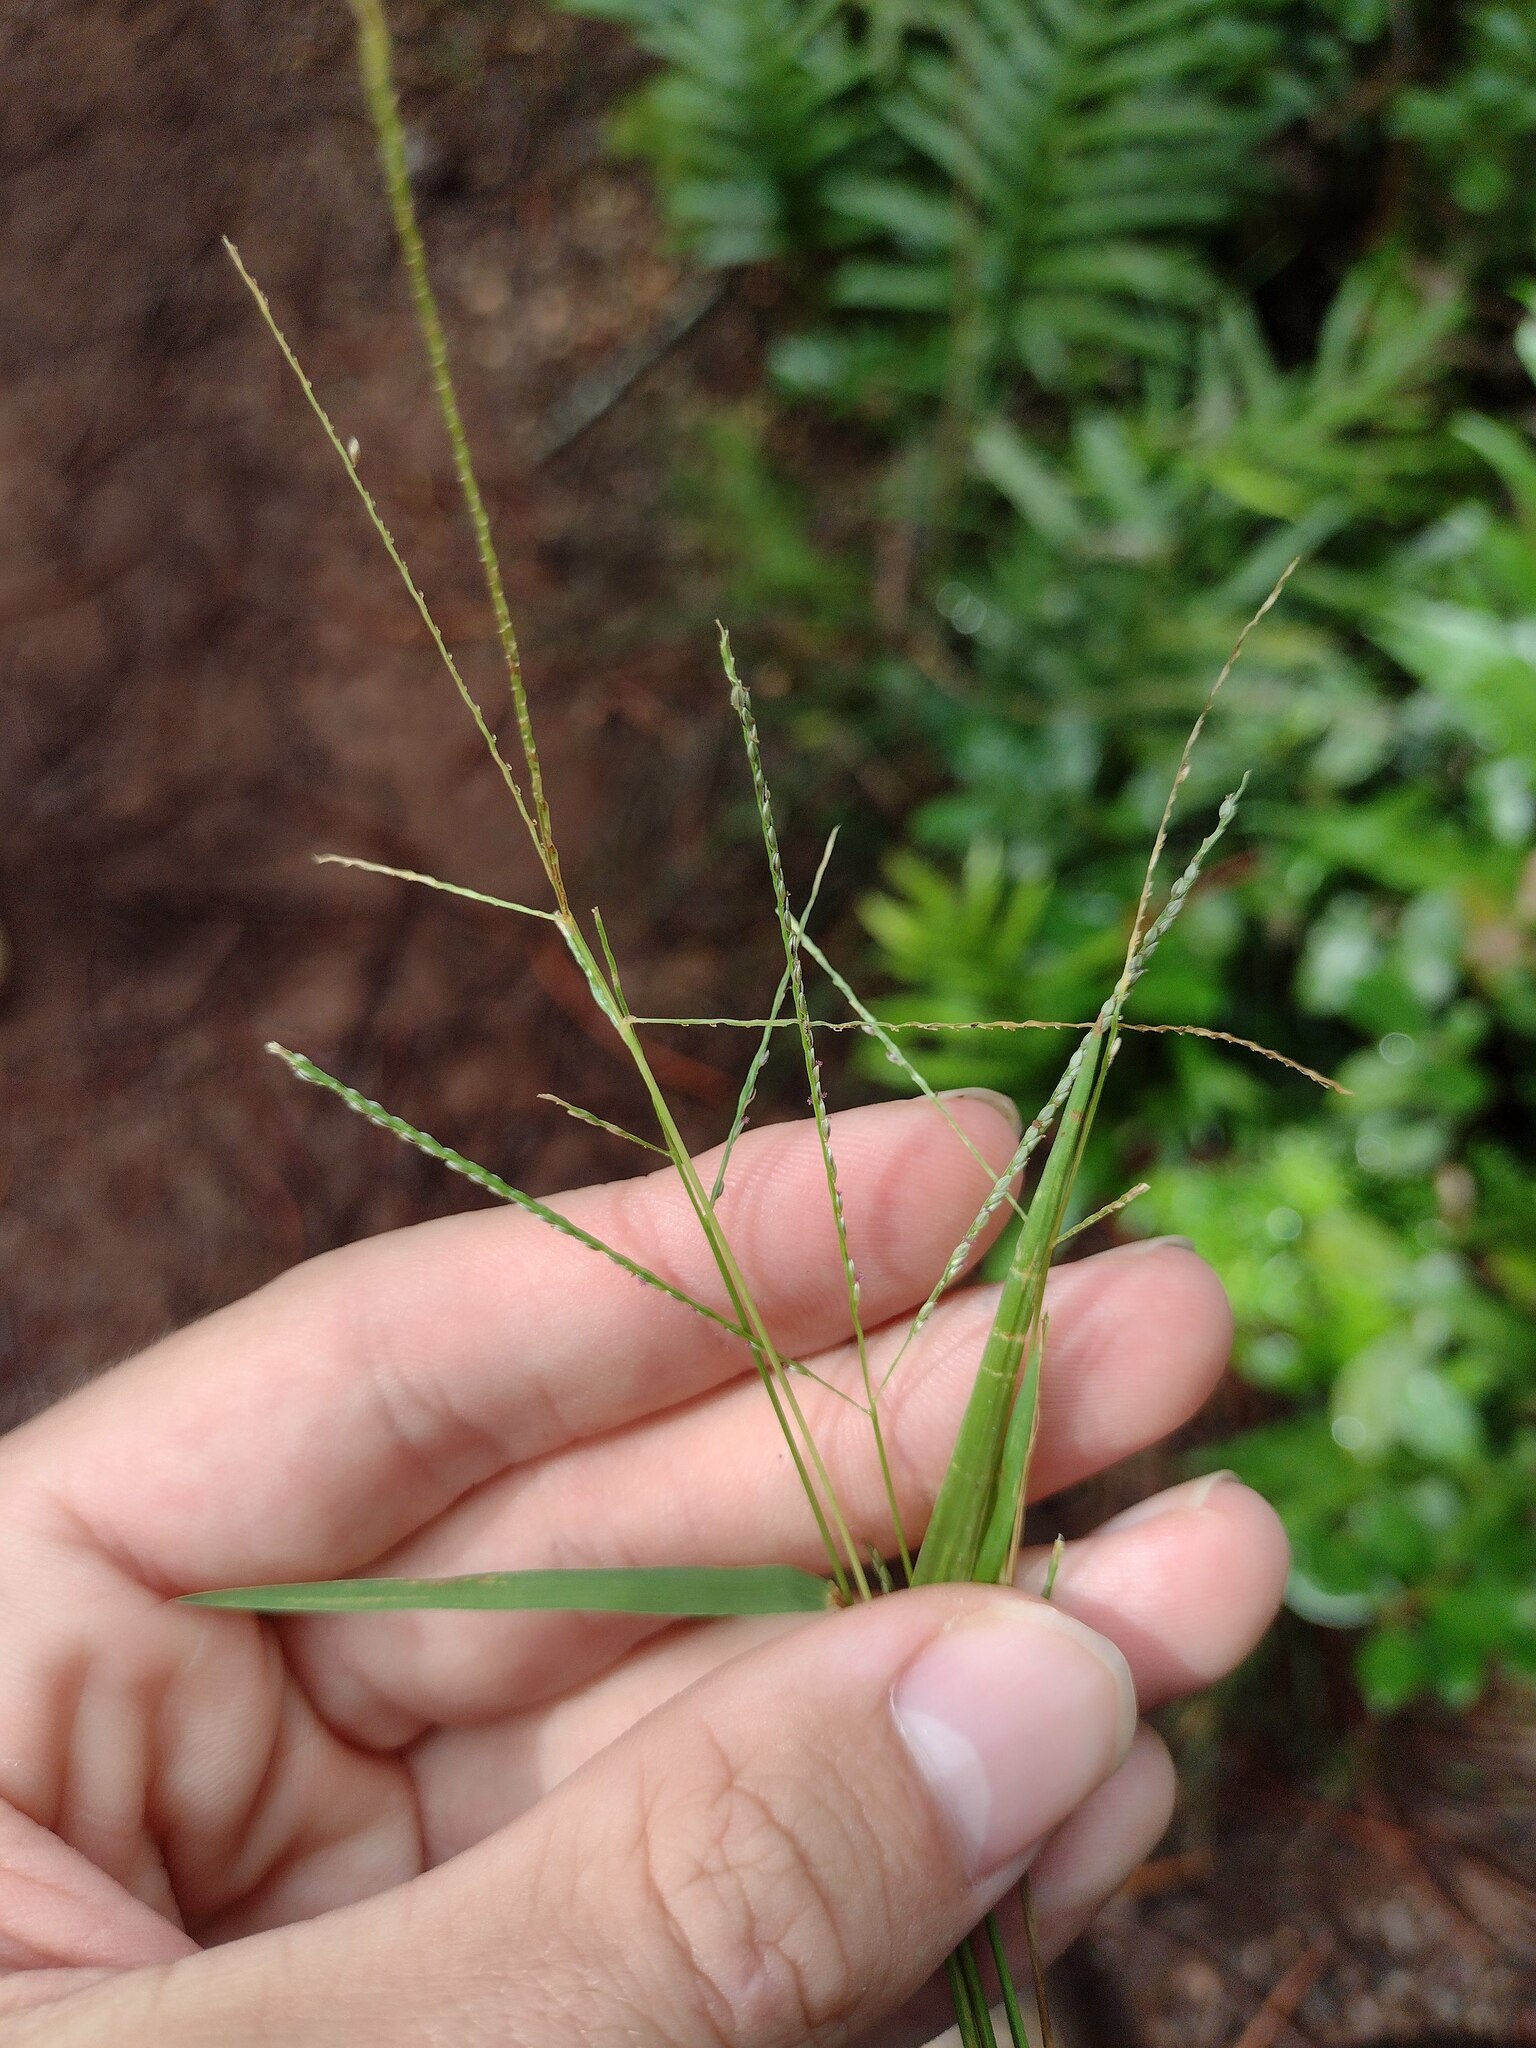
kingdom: Plantae
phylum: Tracheophyta
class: Liliopsida
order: Poales
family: Poaceae
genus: Digitaria
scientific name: Digitaria violascens
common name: Violet crabgrass
